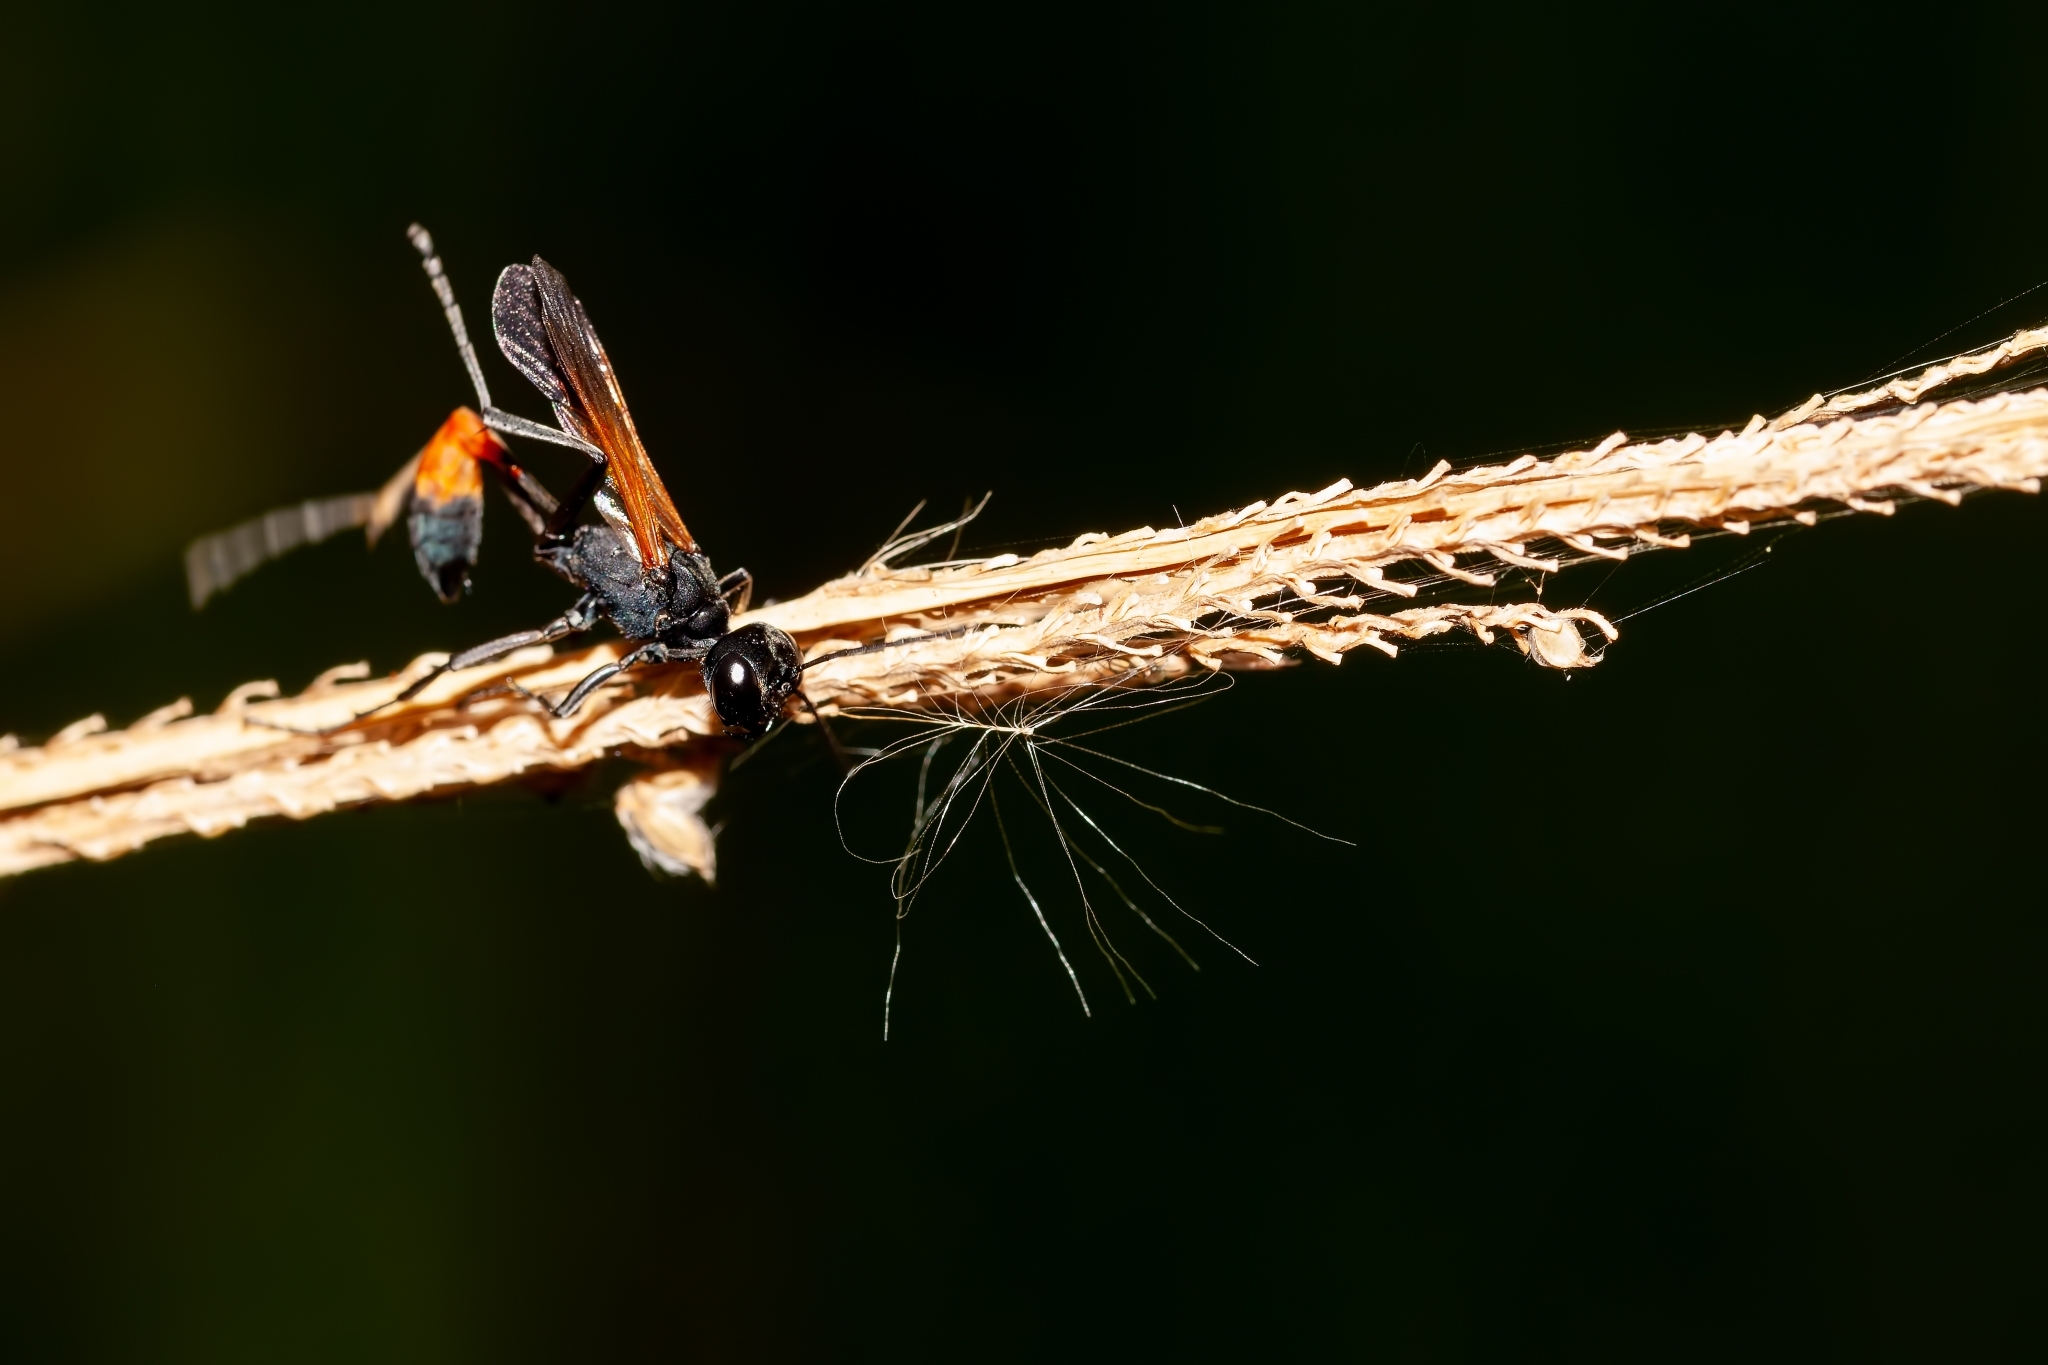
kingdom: Animalia
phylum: Arthropoda
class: Insecta
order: Hymenoptera
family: Sphecidae
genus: Ammophila
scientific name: Ammophila pictipennis
